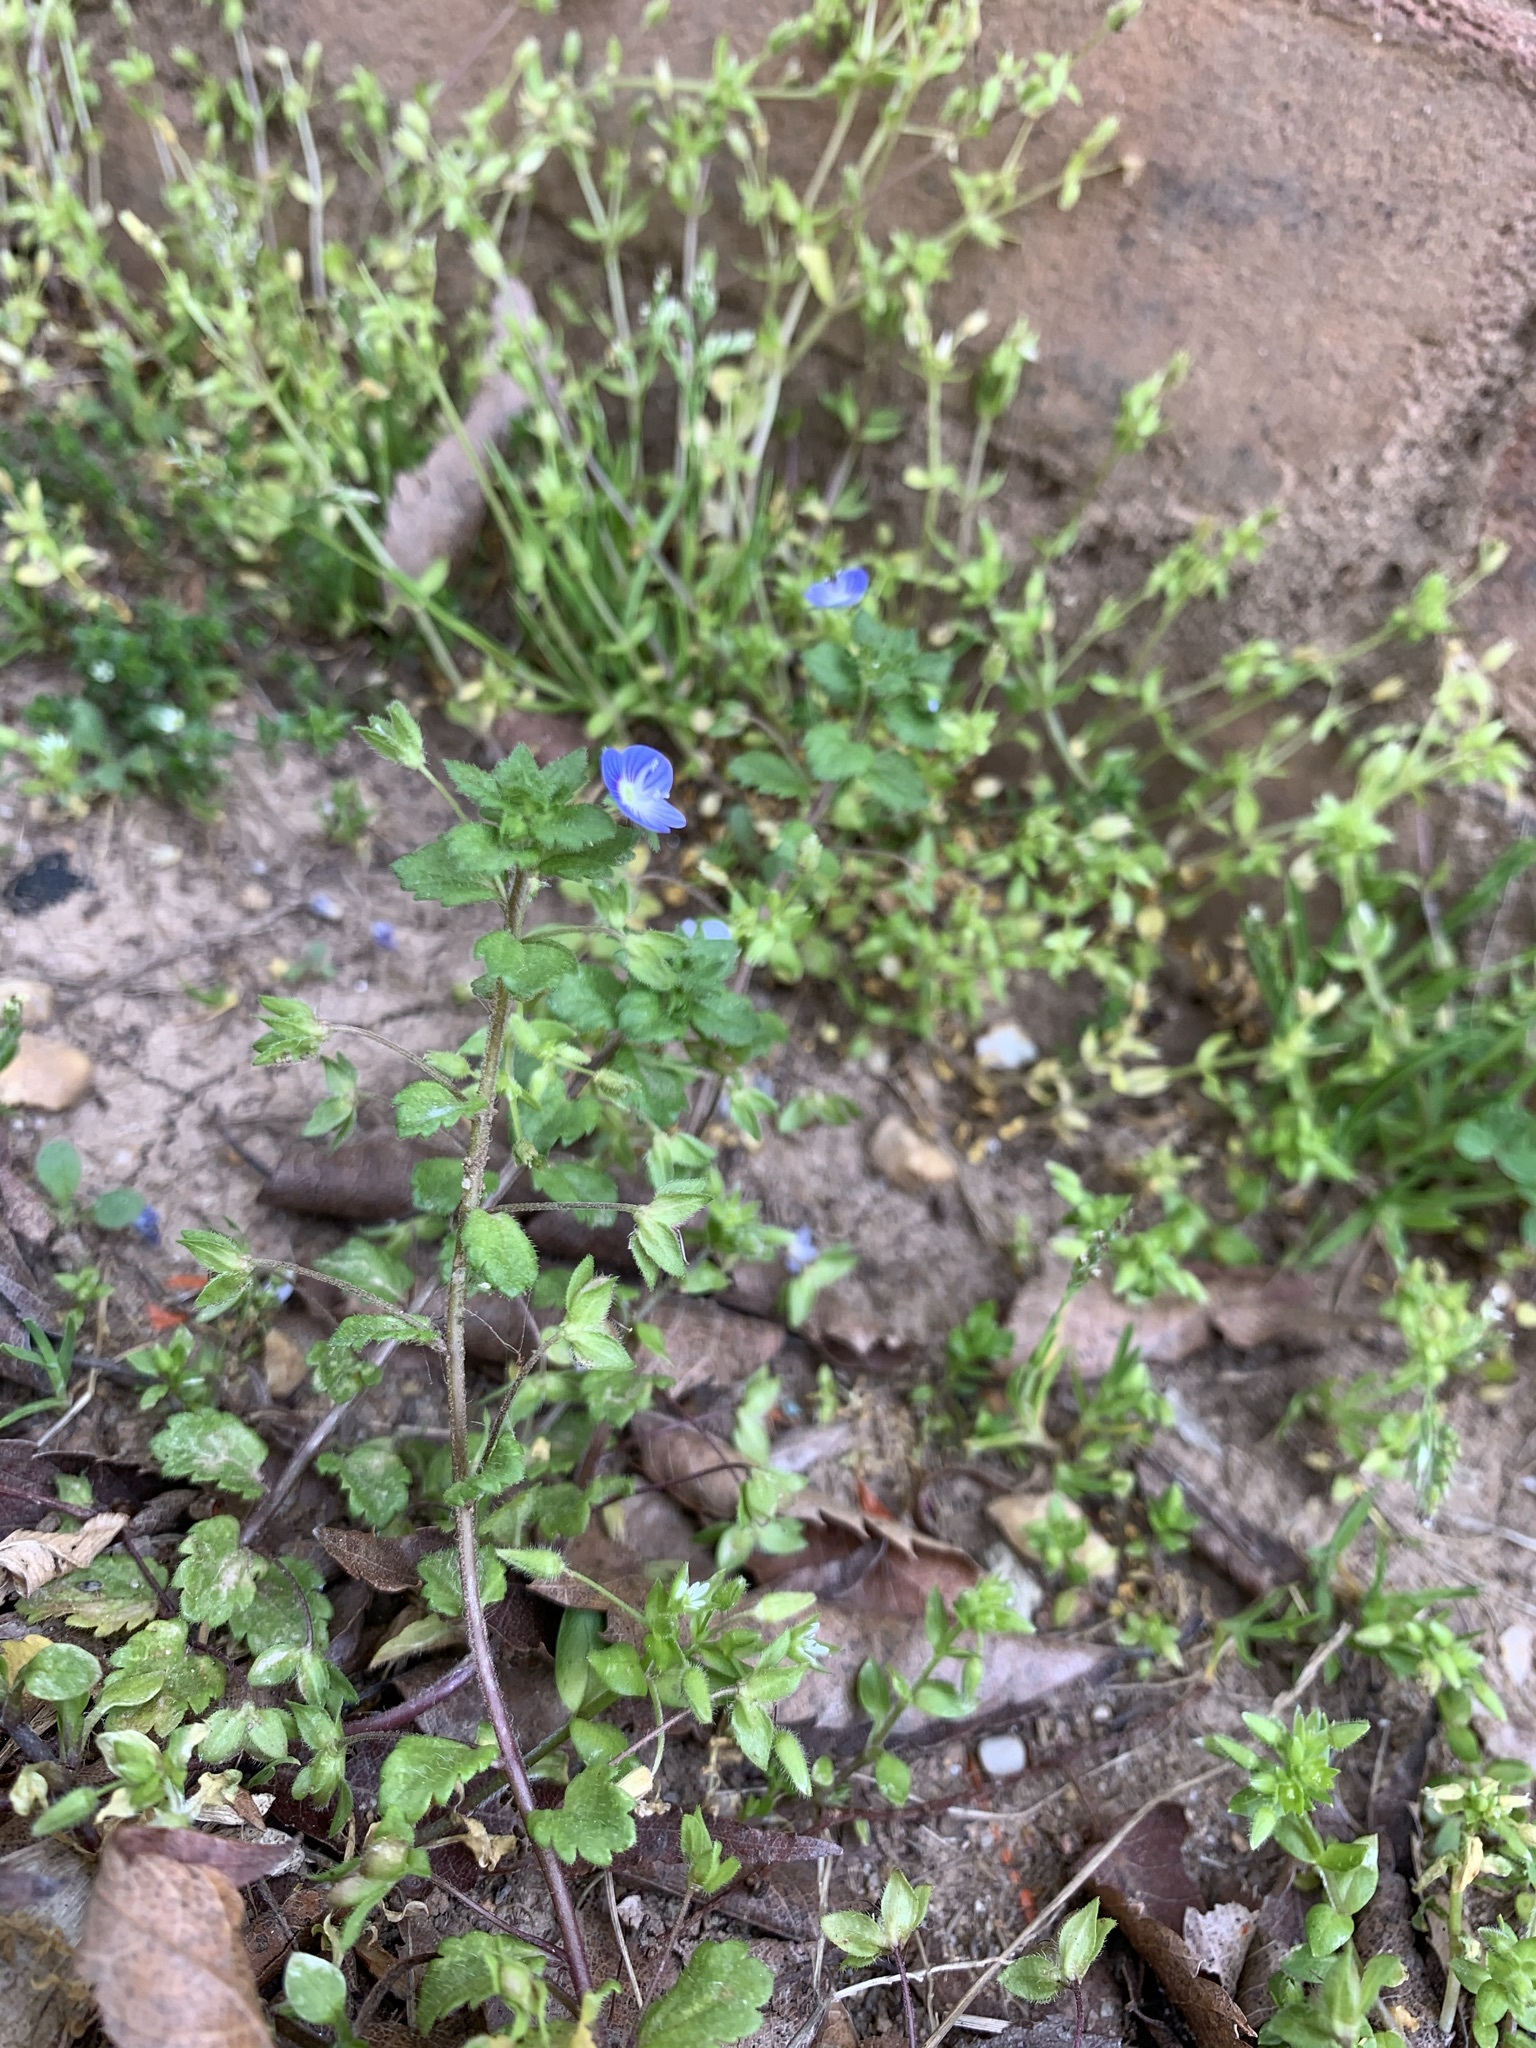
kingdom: Plantae
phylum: Tracheophyta
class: Magnoliopsida
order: Lamiales
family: Plantaginaceae
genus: Veronica
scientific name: Veronica persica
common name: Common field-speedwell
